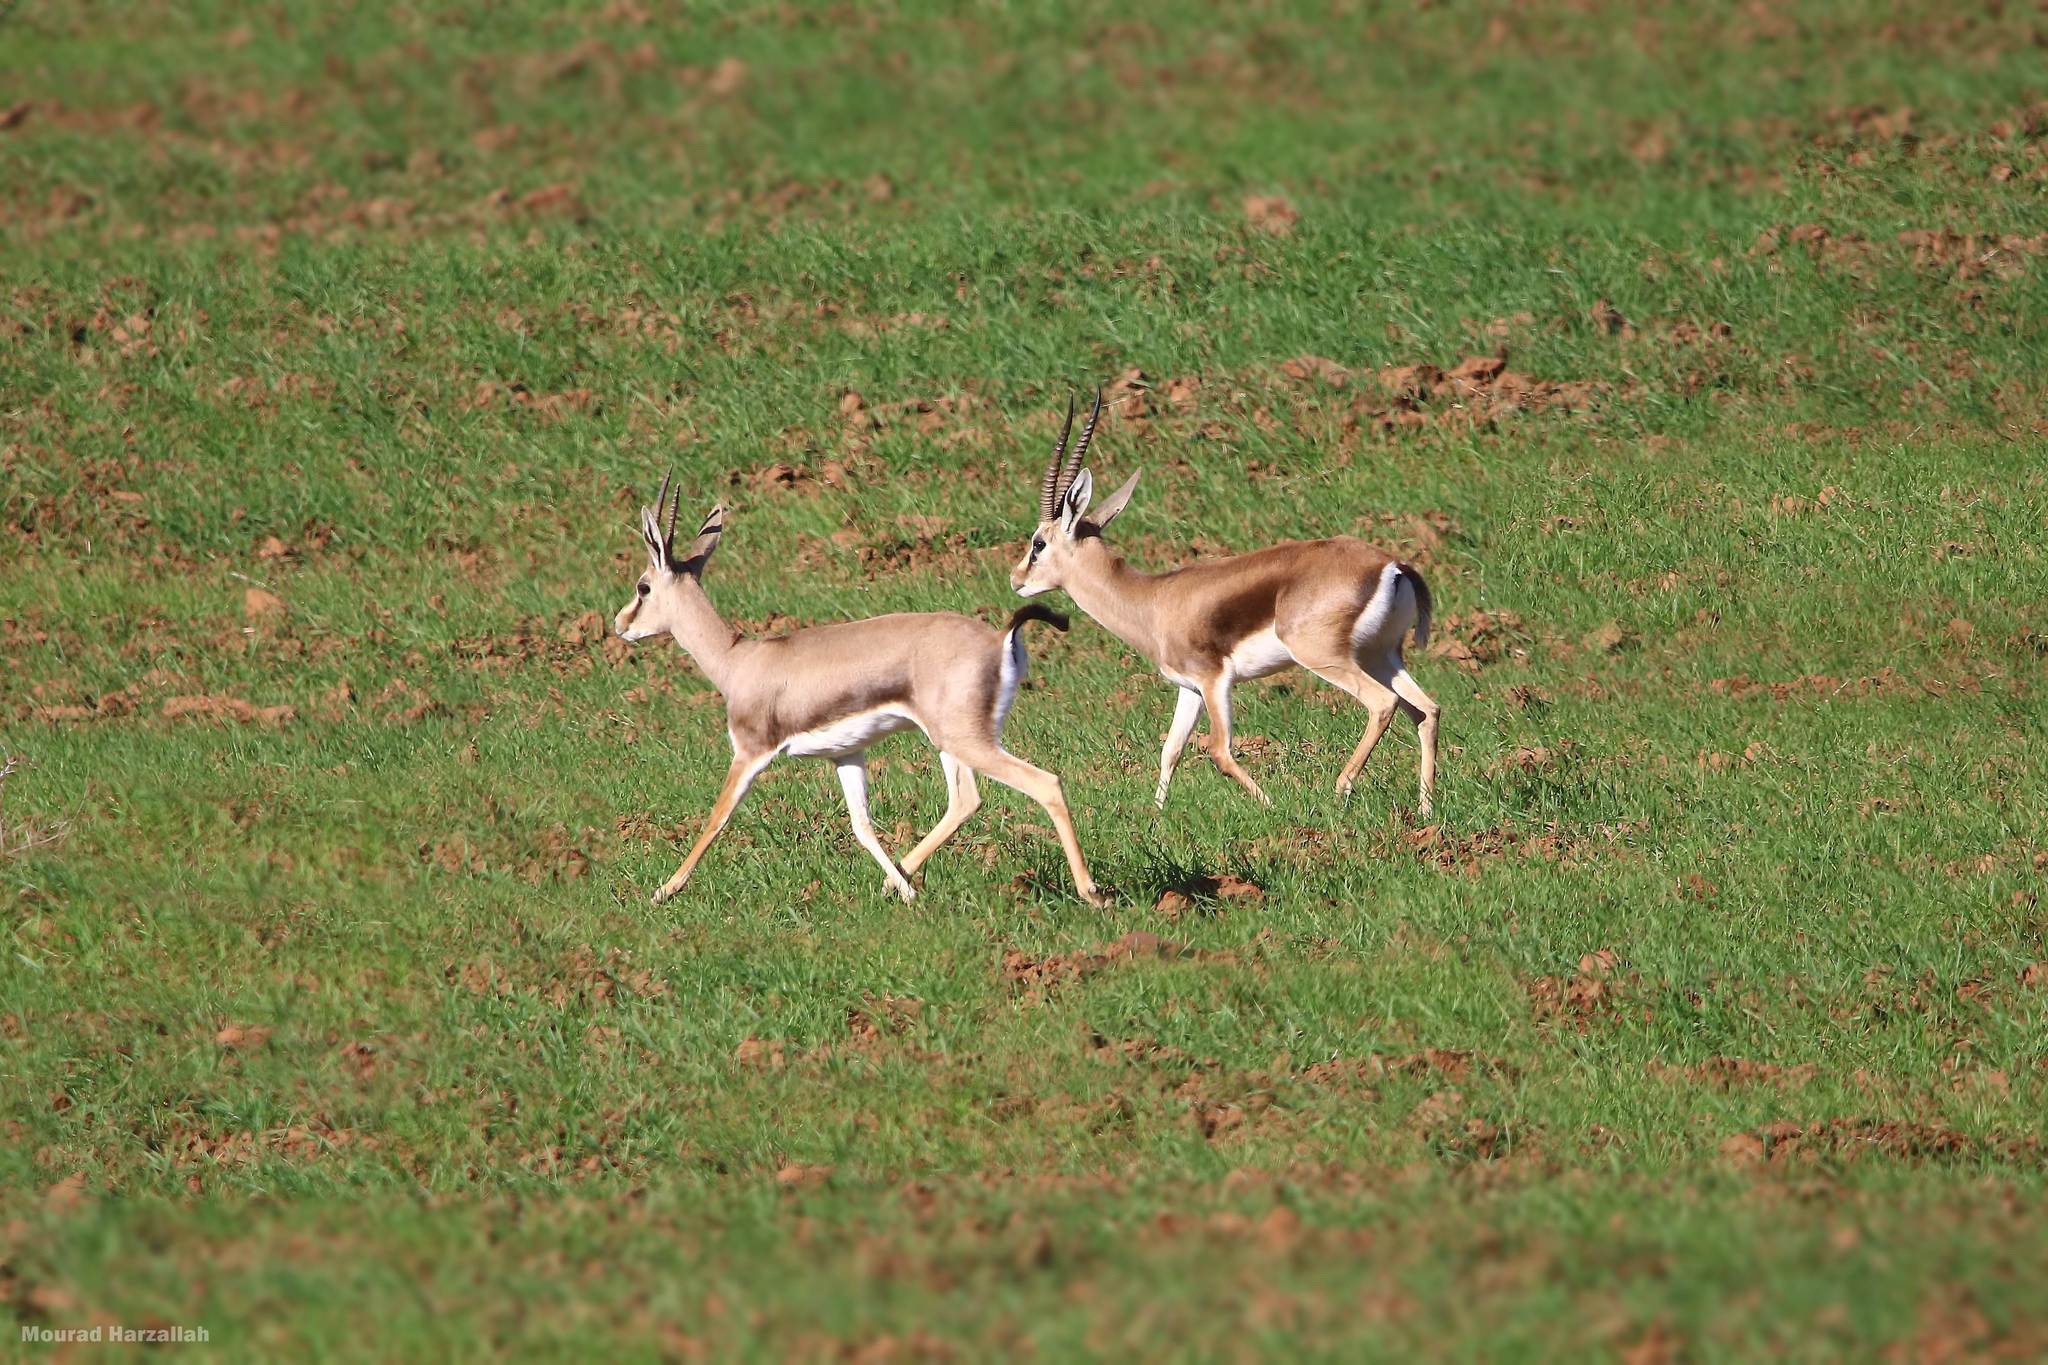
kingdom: Animalia
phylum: Chordata
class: Mammalia
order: Artiodactyla
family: Bovidae
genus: Gazella
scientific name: Gazella cuvieri
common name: Cuvier's gazelle
